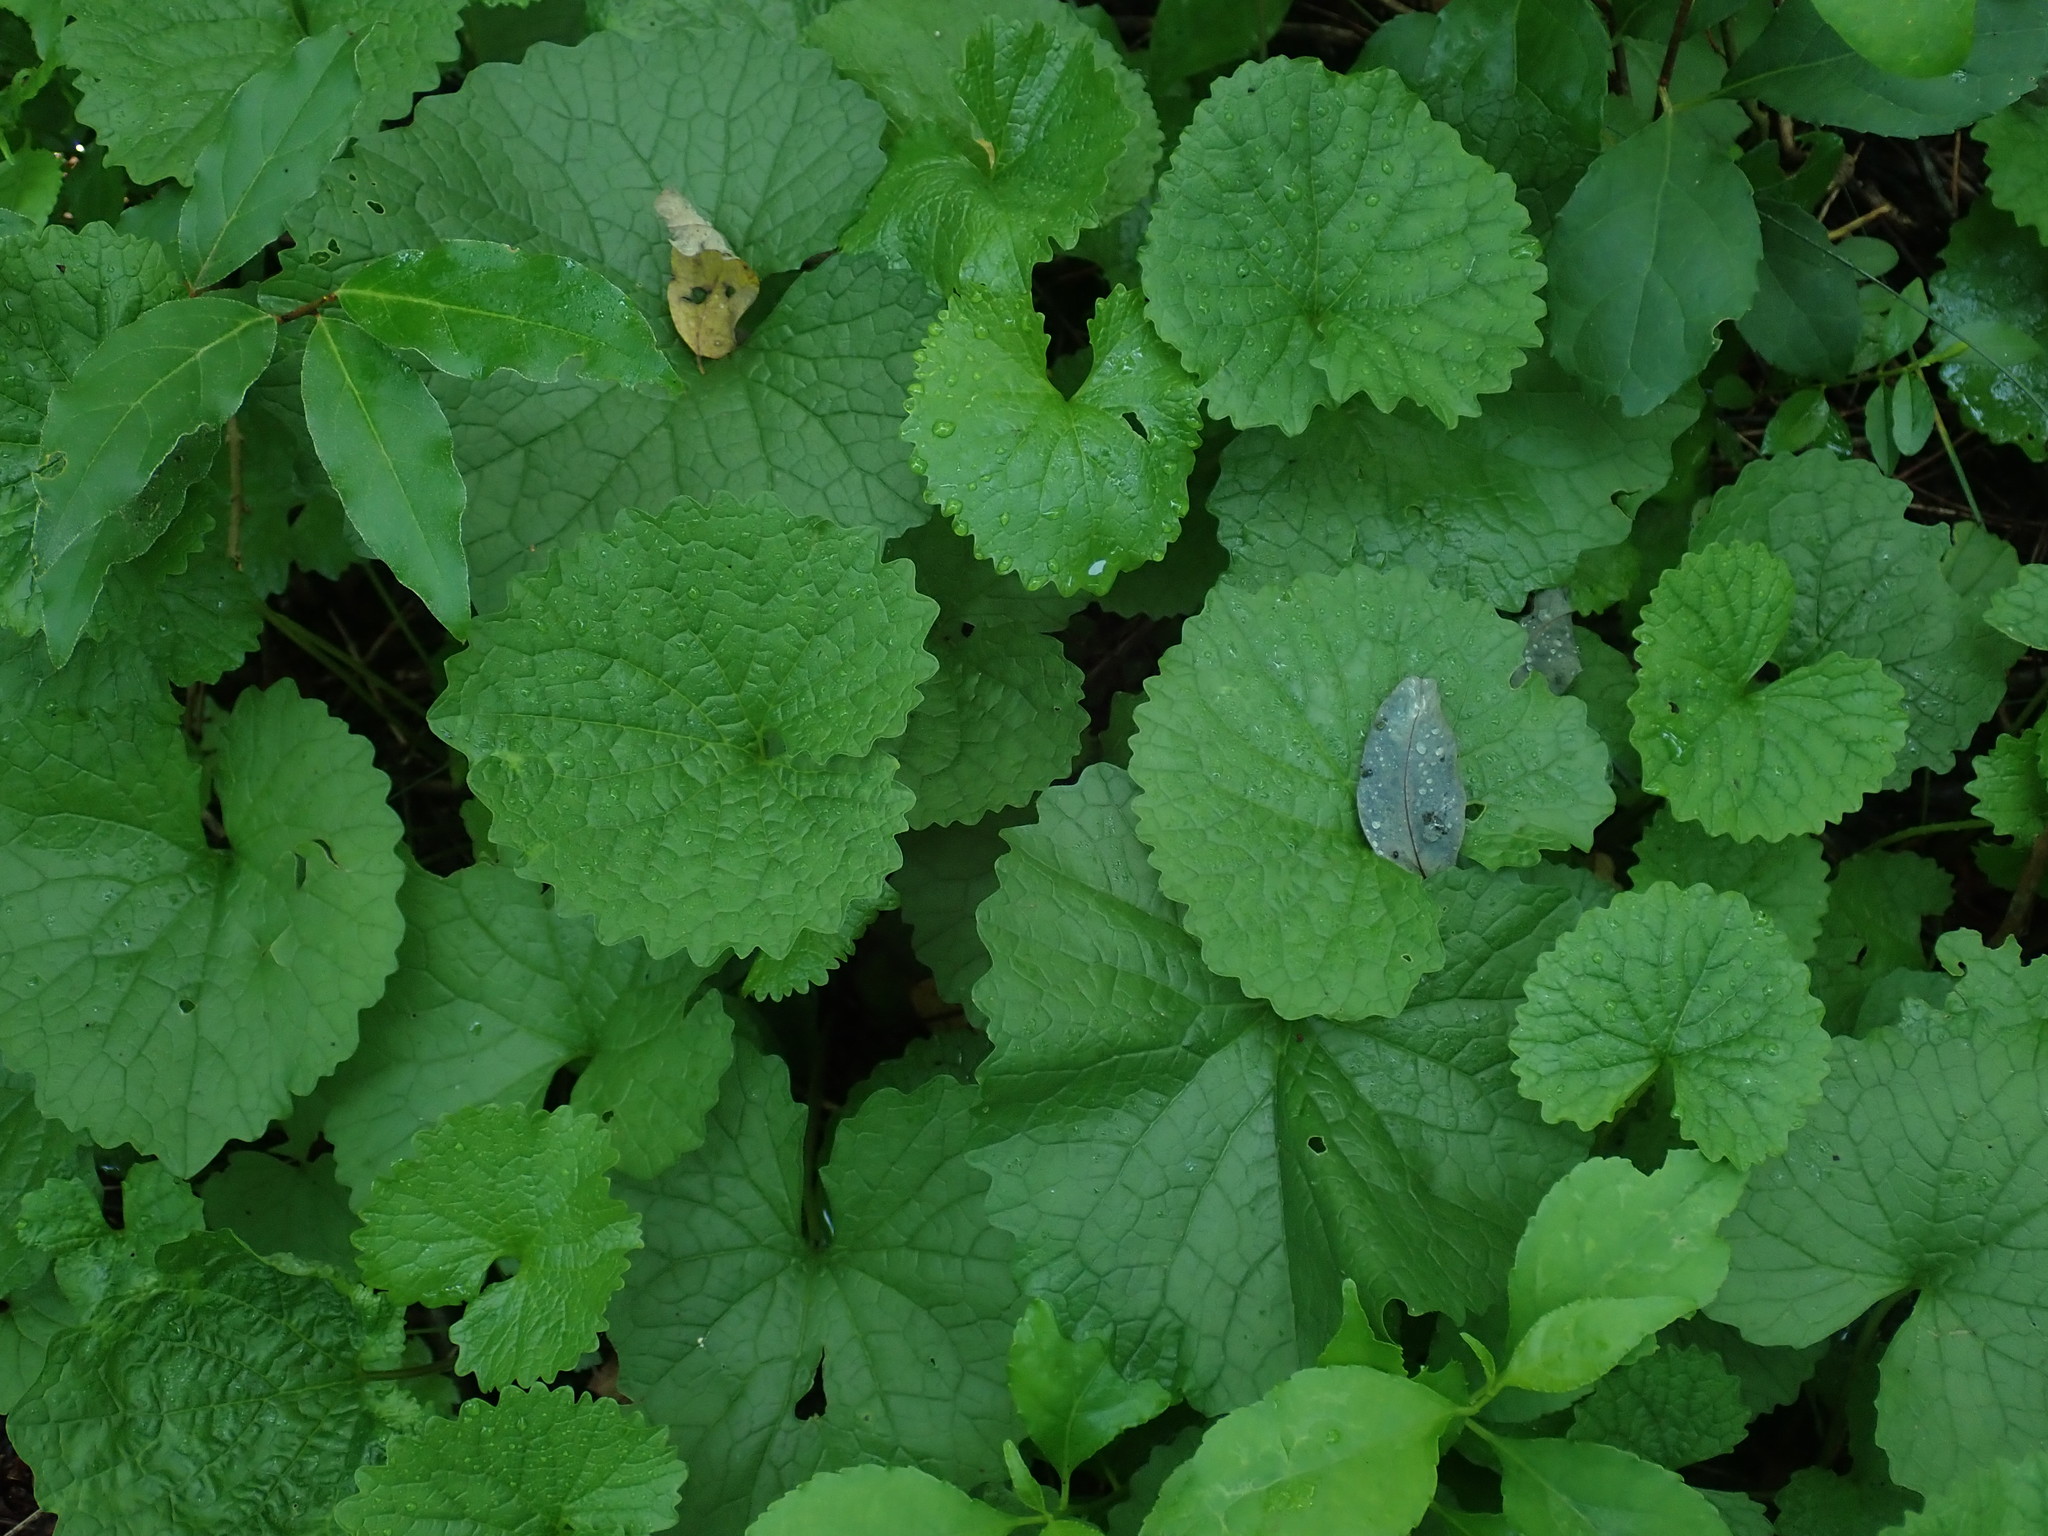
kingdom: Plantae
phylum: Tracheophyta
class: Magnoliopsida
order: Brassicales
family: Brassicaceae
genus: Alliaria
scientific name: Alliaria petiolata
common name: Garlic mustard
